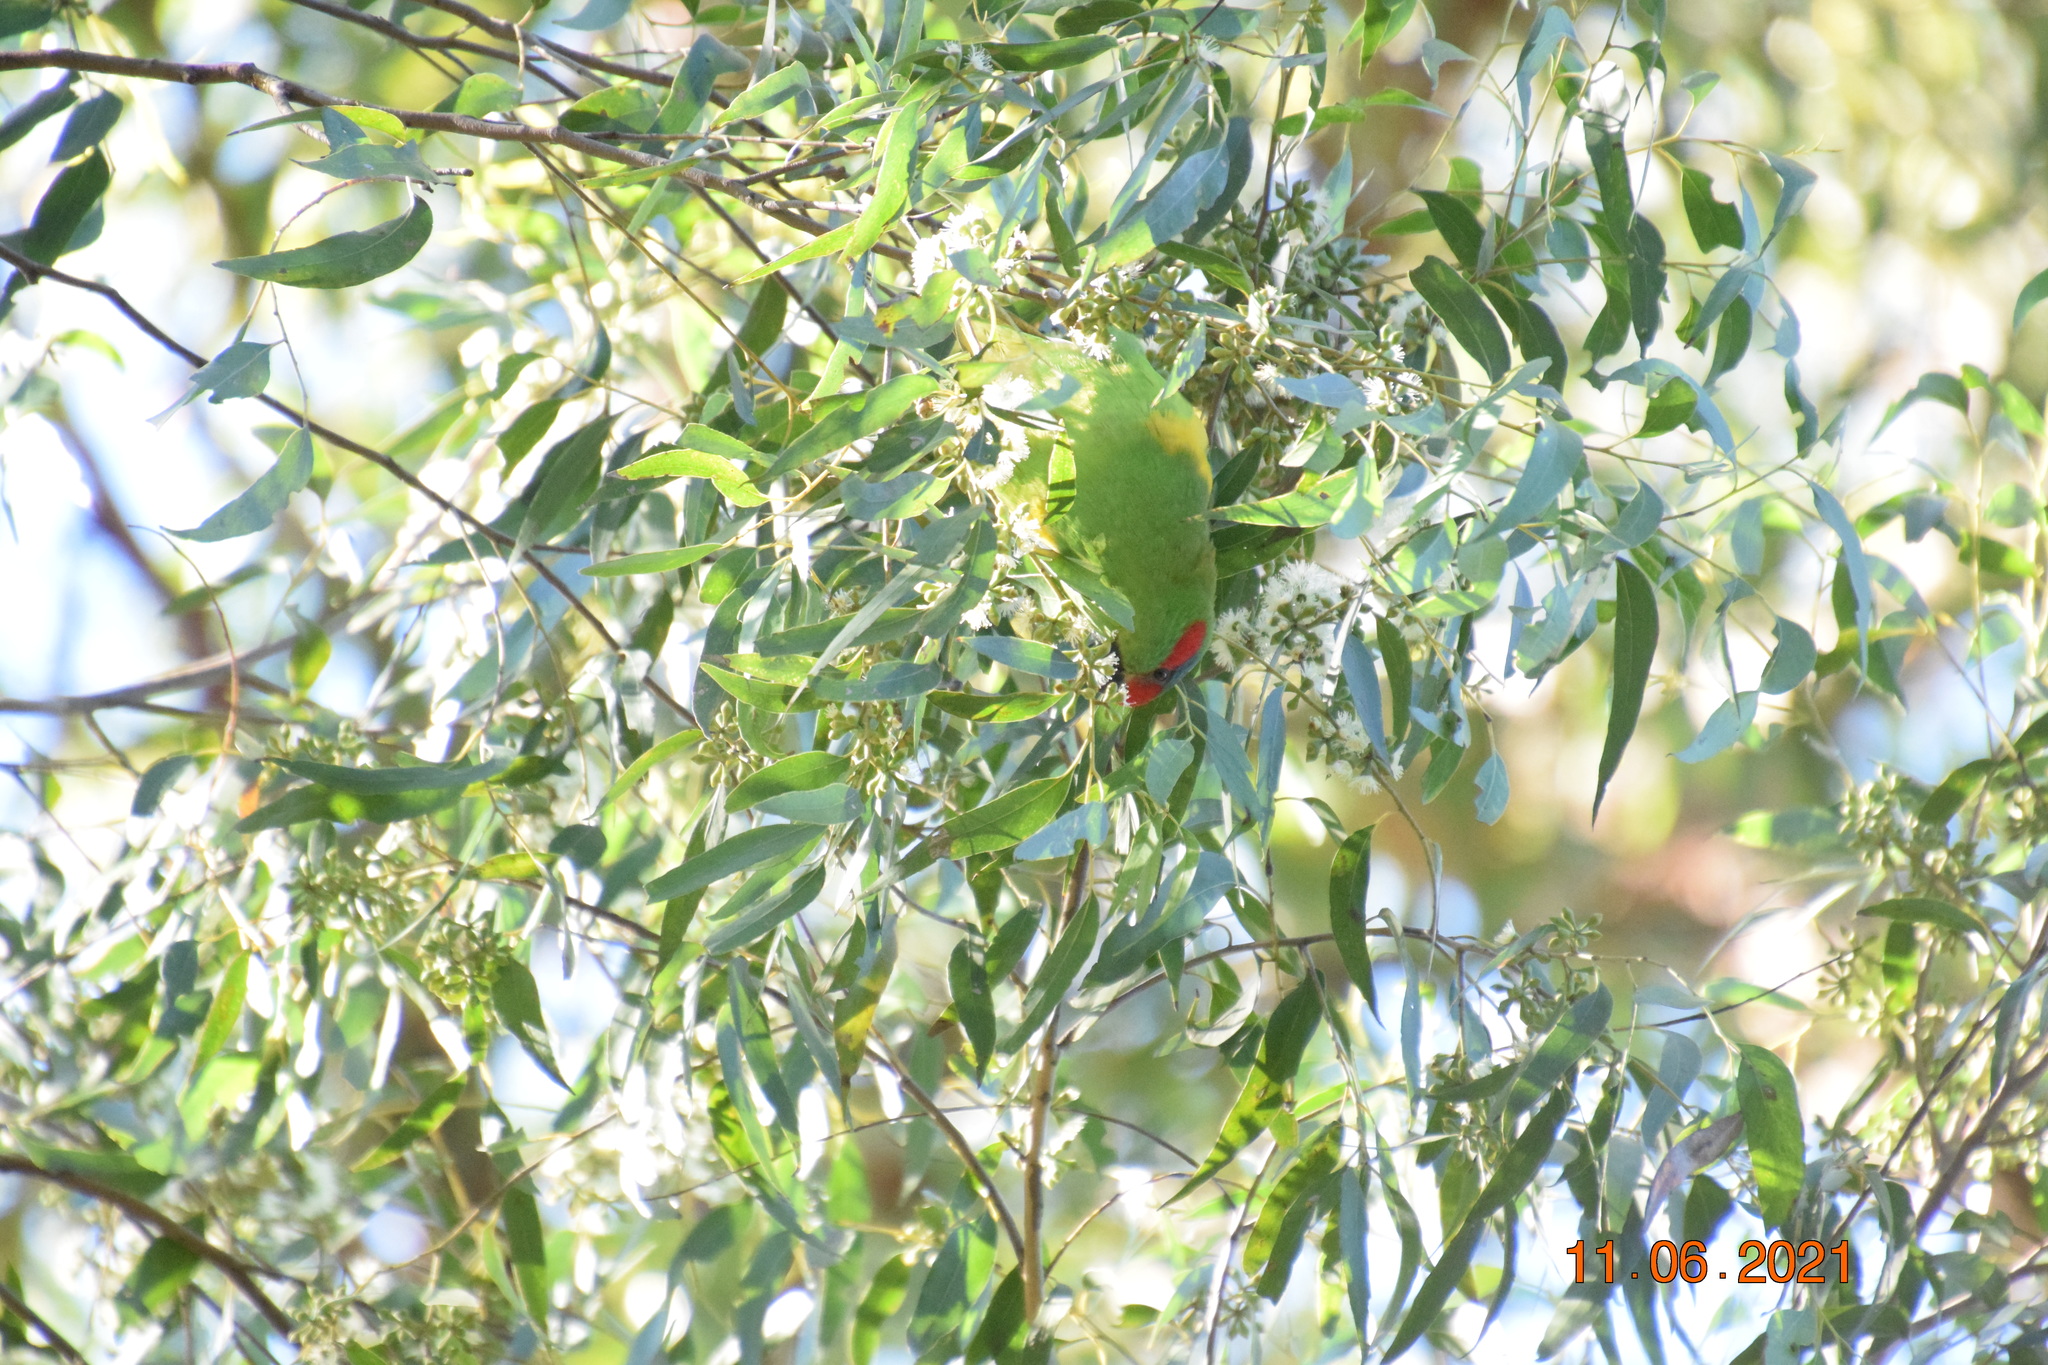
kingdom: Animalia
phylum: Chordata
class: Aves
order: Psittaciformes
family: Psittacidae
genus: Glossopsitta
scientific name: Glossopsitta concinna
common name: Musk lorikeet
